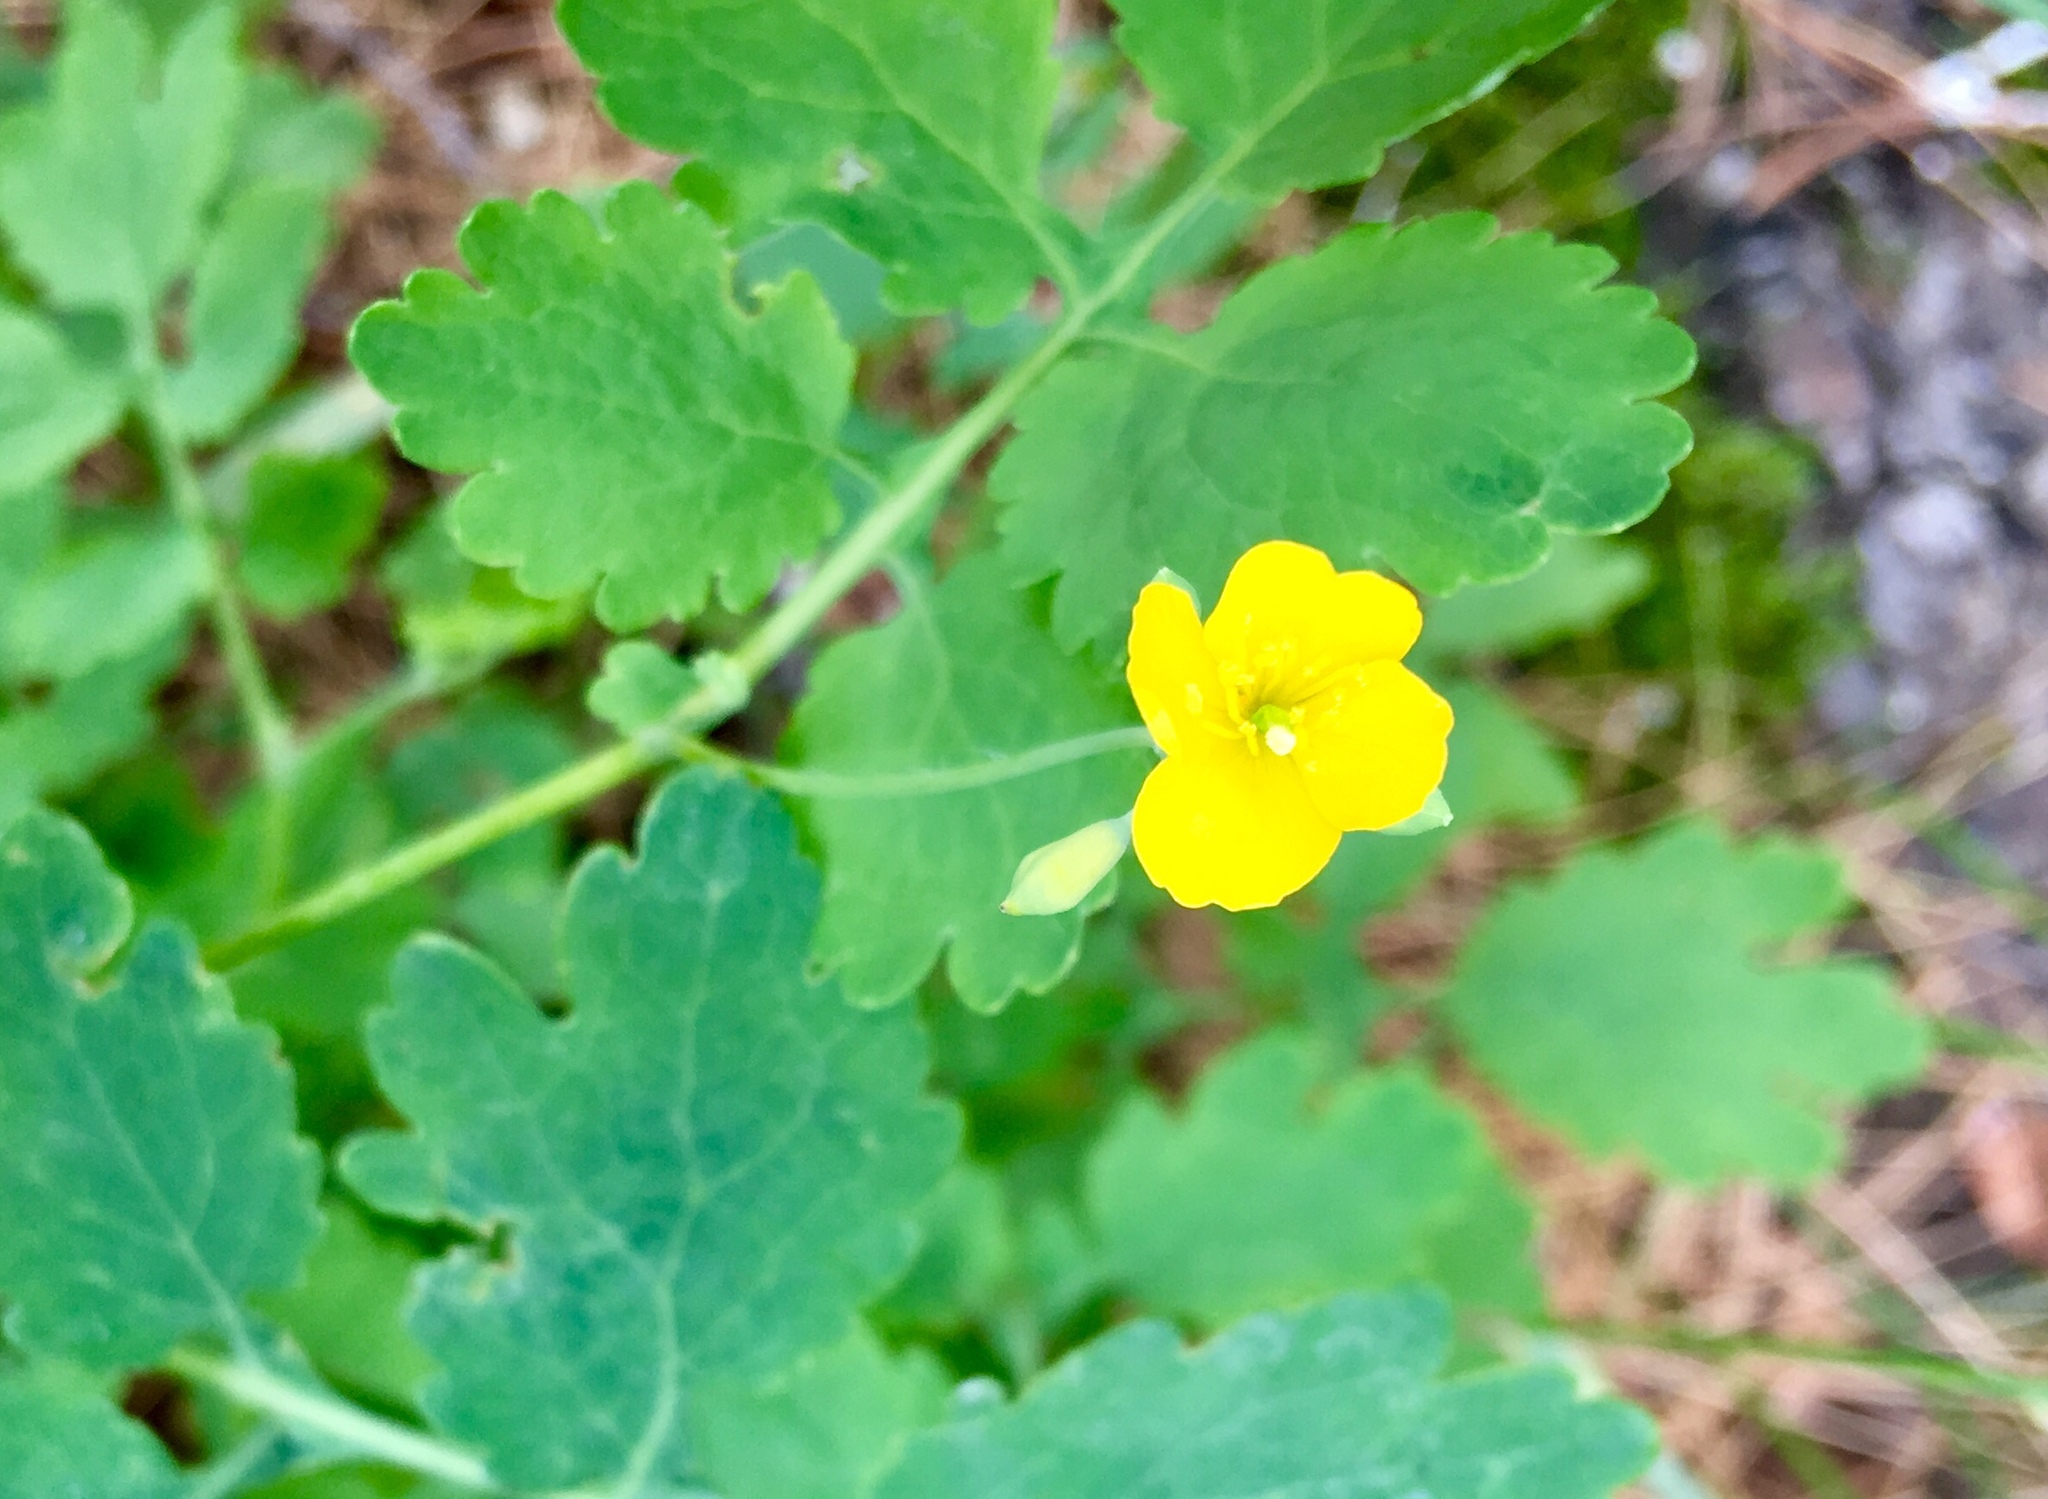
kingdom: Plantae
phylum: Tracheophyta
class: Magnoliopsida
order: Ranunculales
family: Papaveraceae
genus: Chelidonium
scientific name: Chelidonium majus
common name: Greater celandine
